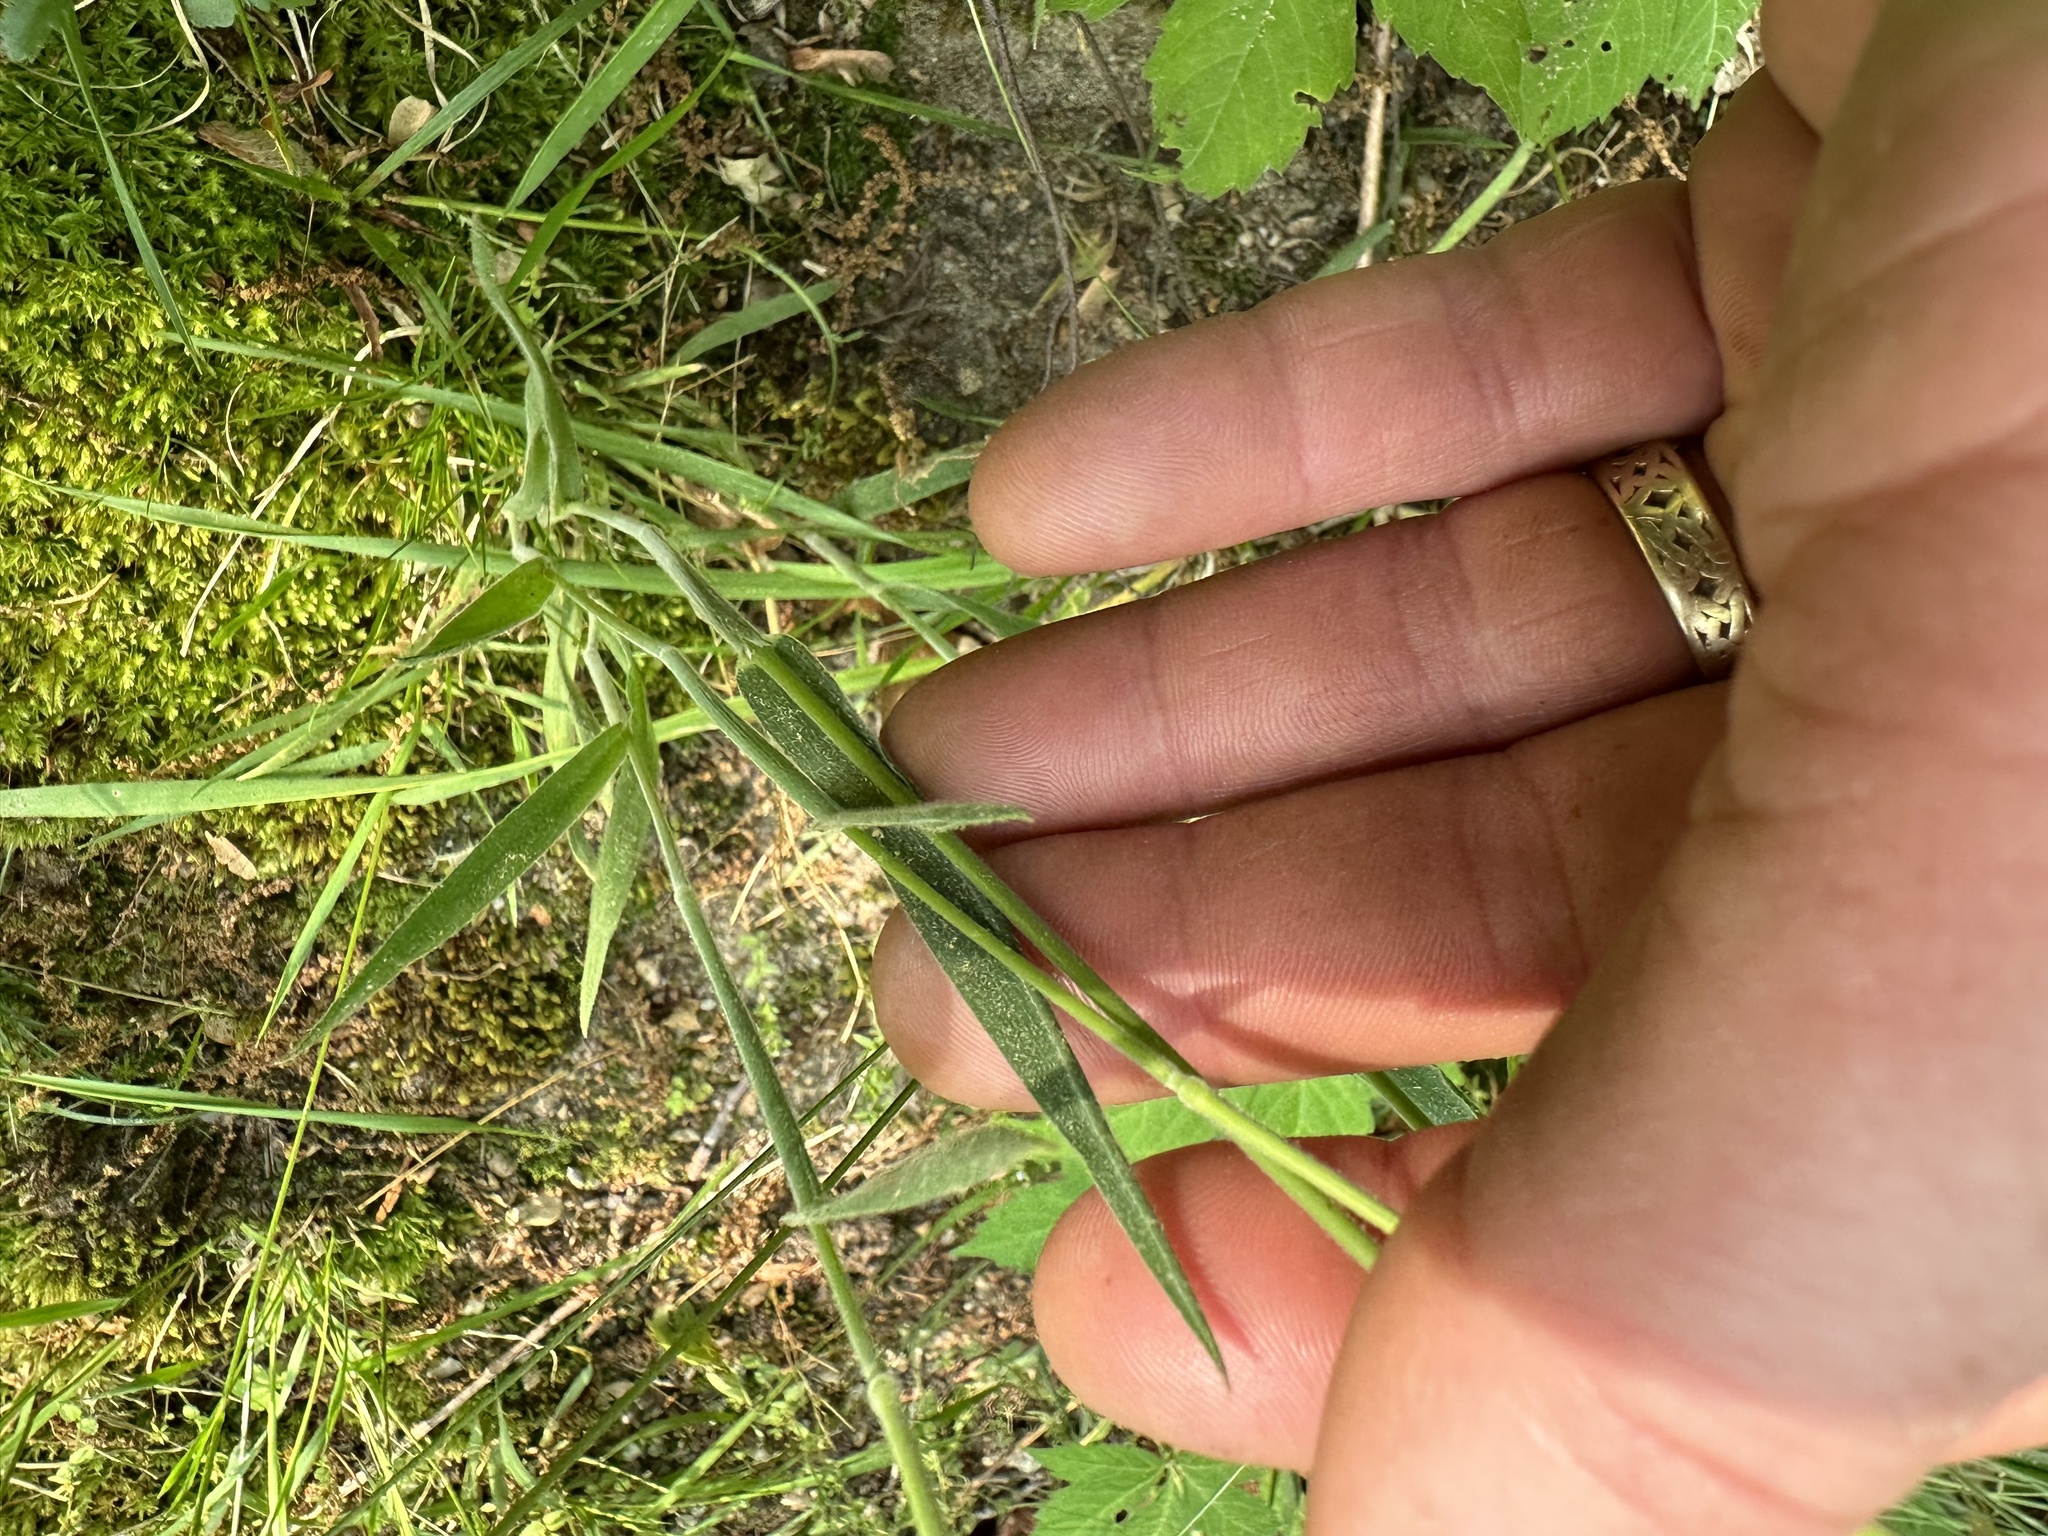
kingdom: Plantae
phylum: Tracheophyta
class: Liliopsida
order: Poales
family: Poaceae
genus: Holcus
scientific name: Holcus lanatus
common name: Yorkshire-fog
